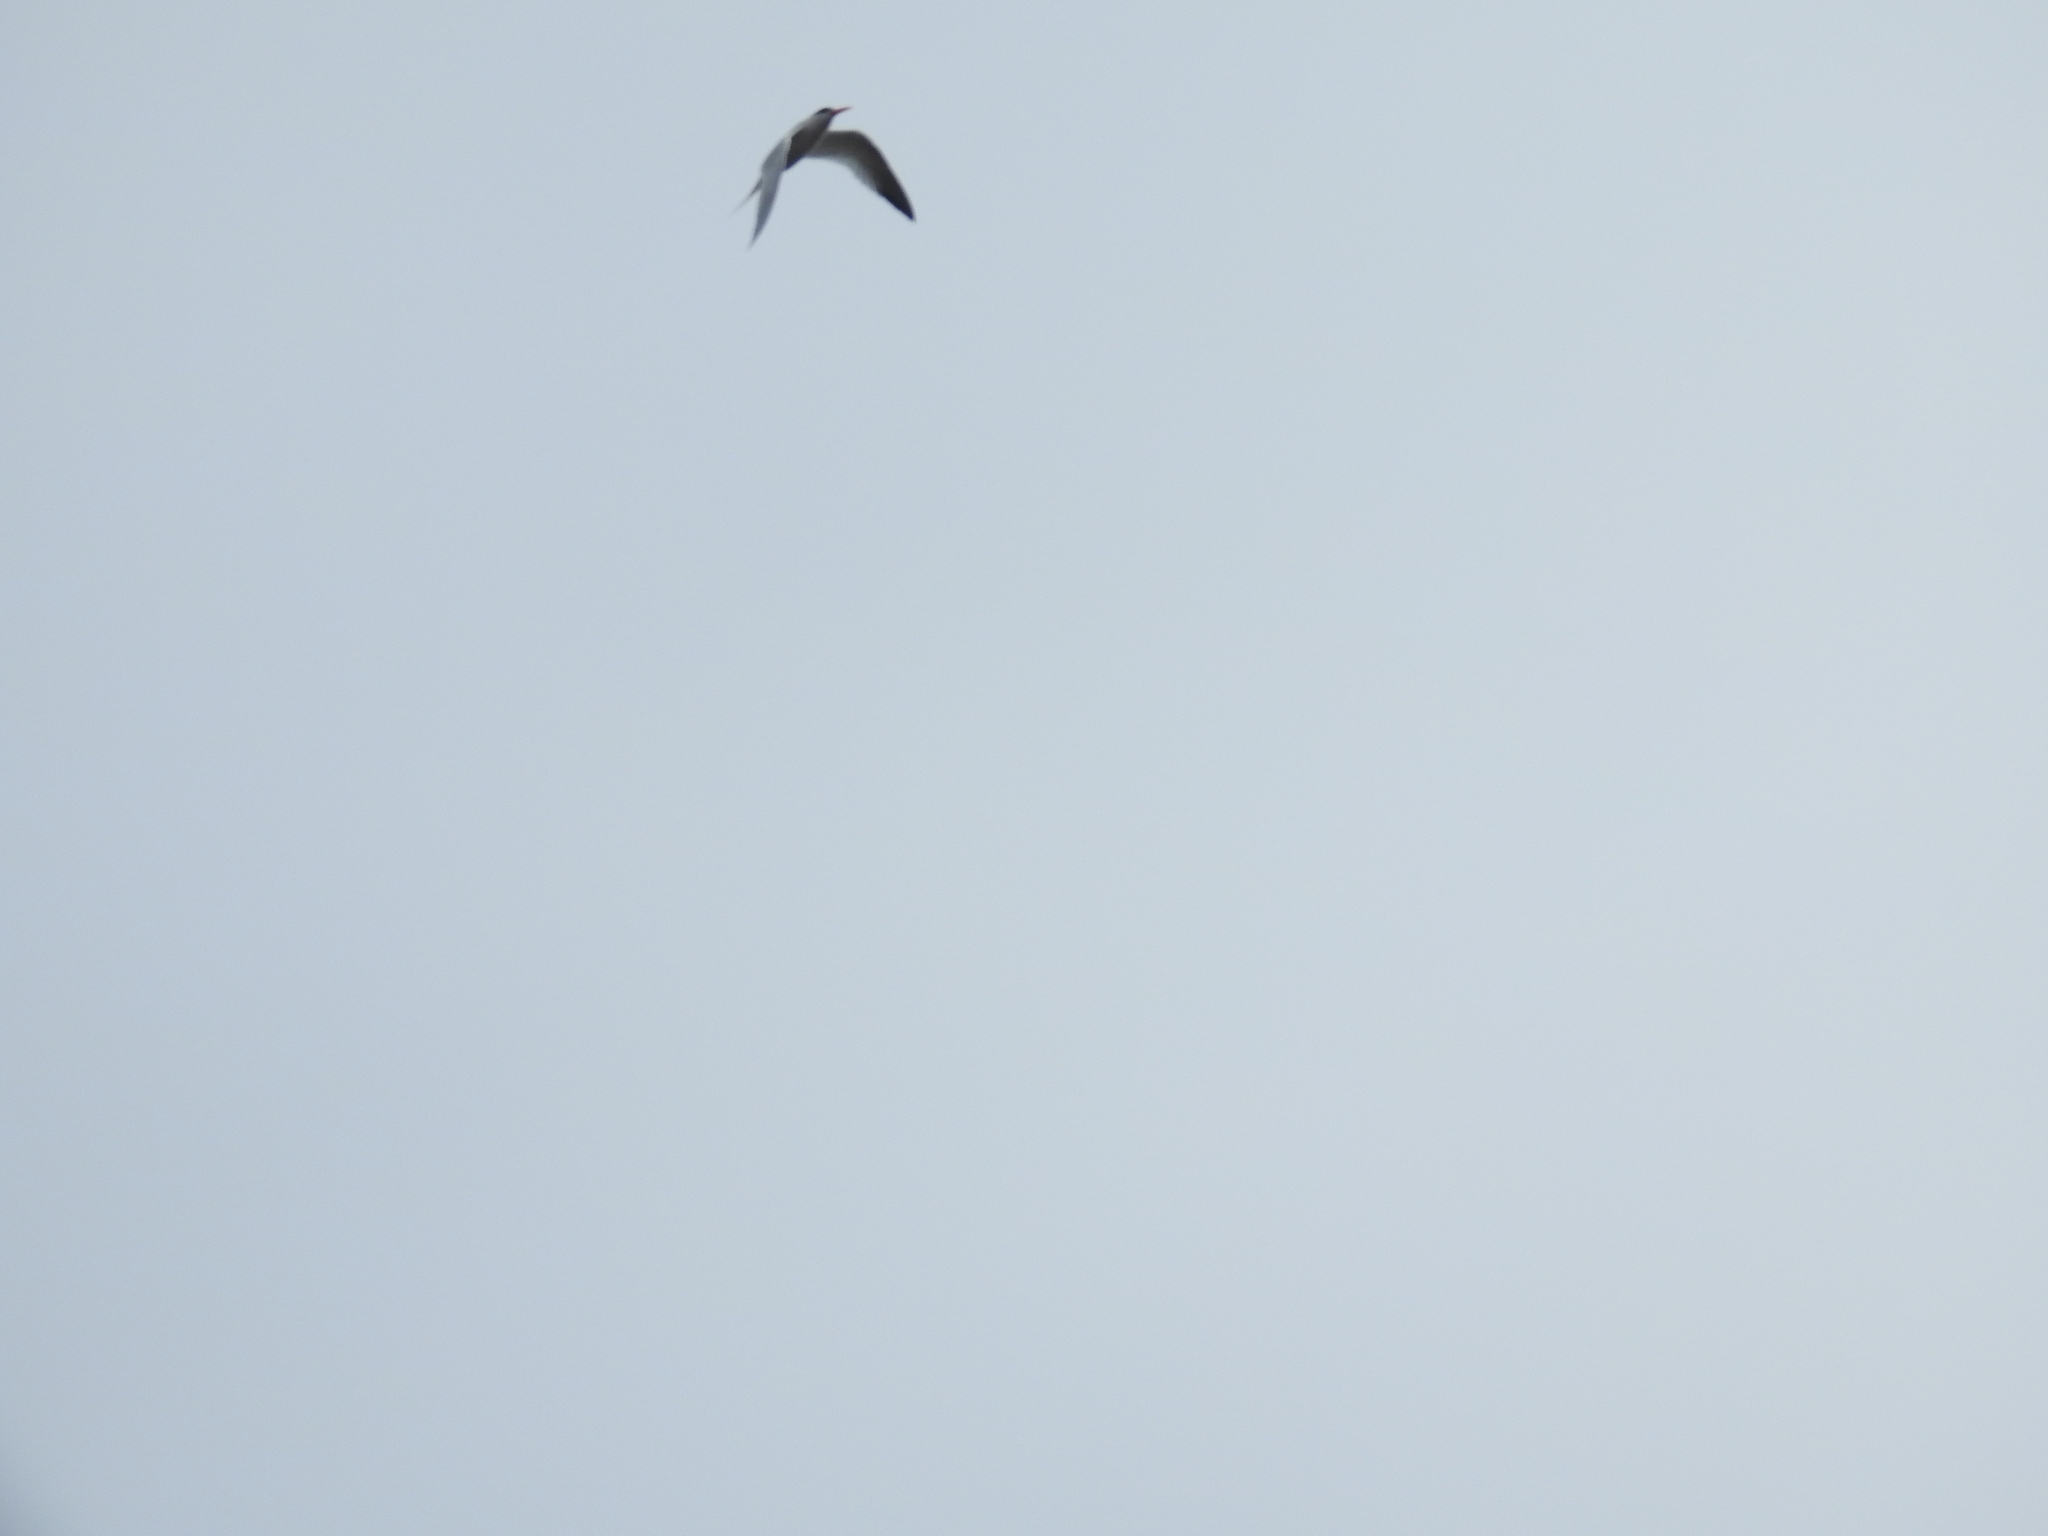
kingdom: Animalia
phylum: Chordata
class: Aves
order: Charadriiformes
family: Laridae
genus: Thalasseus
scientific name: Thalasseus elegans
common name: Elegant tern
